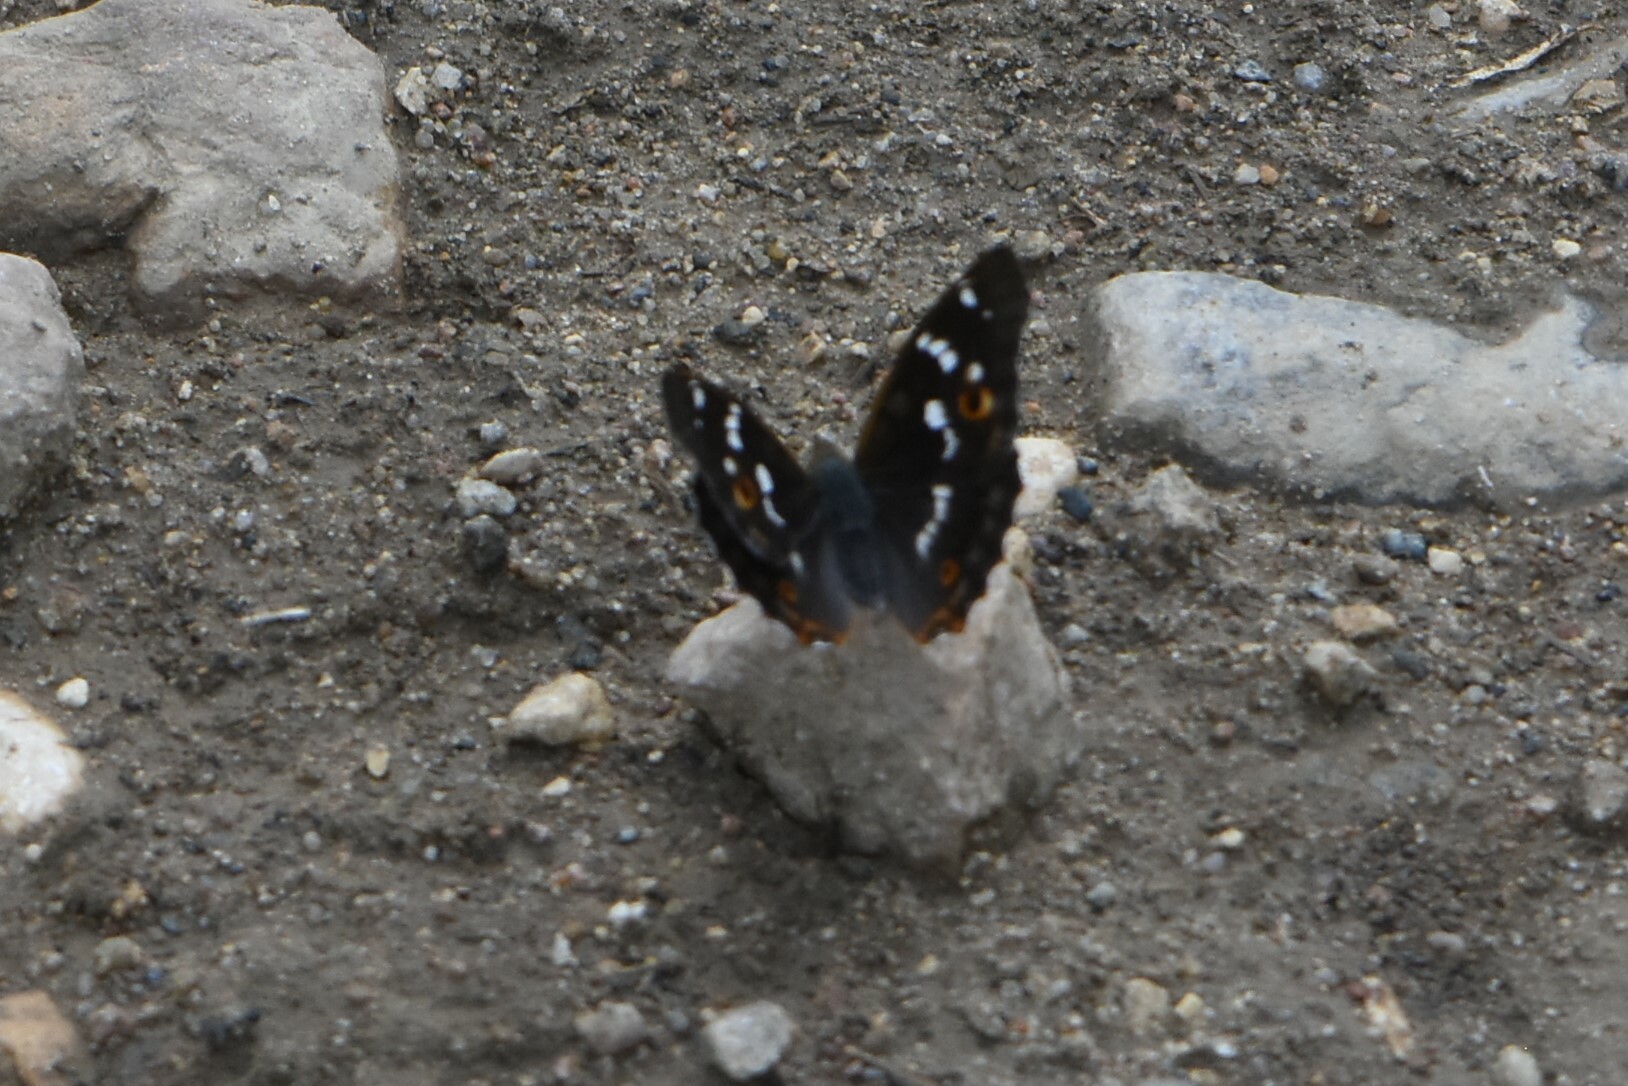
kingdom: Animalia
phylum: Arthropoda
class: Insecta
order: Lepidoptera
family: Nymphalidae
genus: Apatura
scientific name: Apatura ilia
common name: Lesser purple emperor
